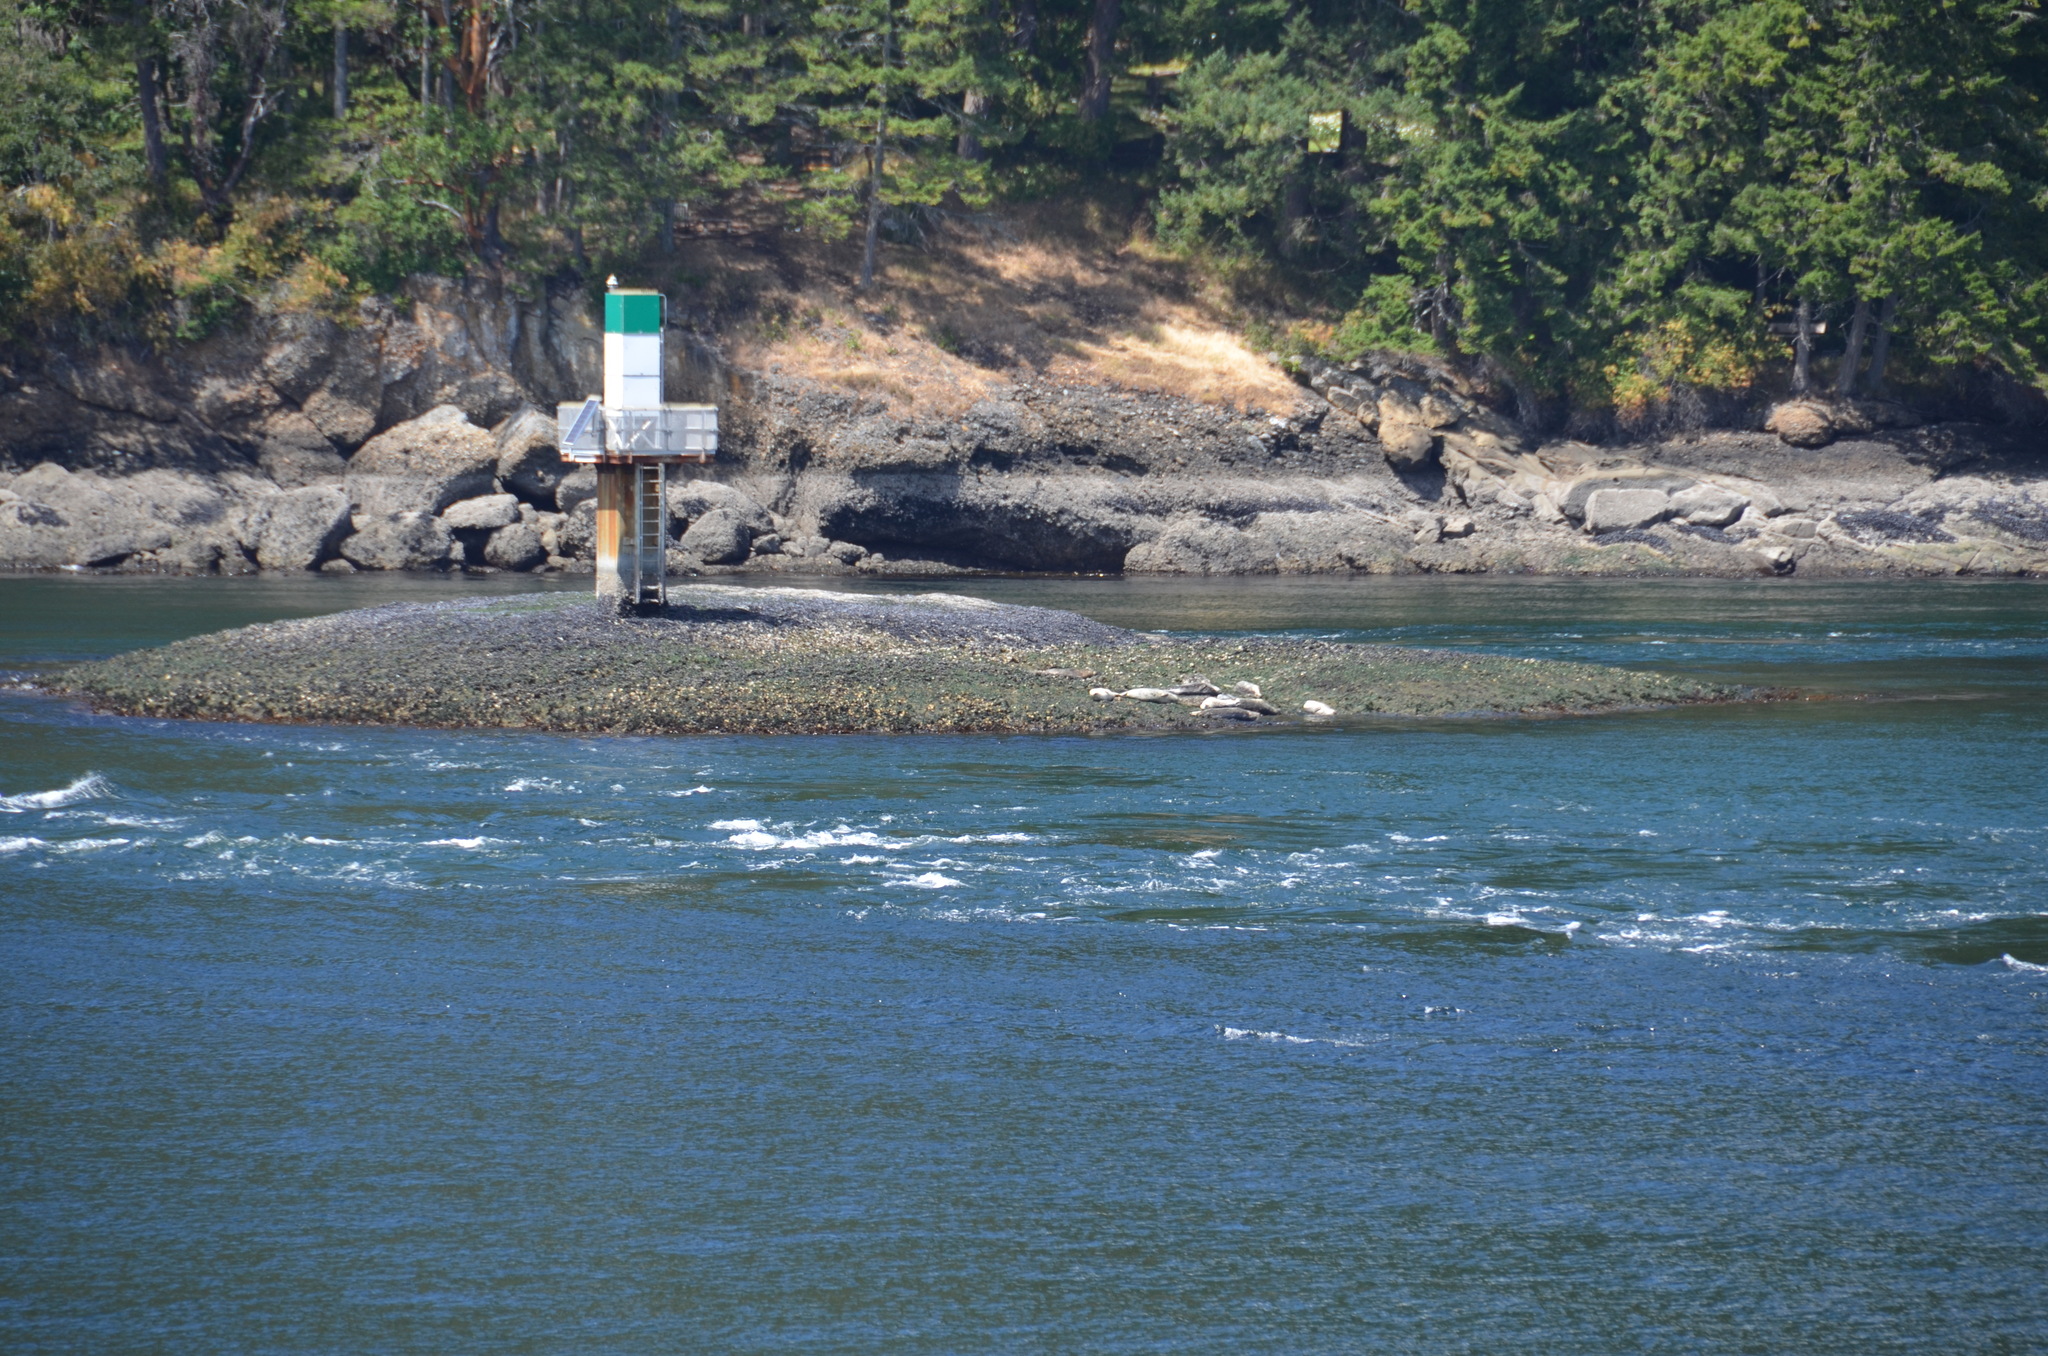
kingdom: Animalia
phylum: Chordata
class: Mammalia
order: Carnivora
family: Phocidae
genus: Phoca
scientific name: Phoca vitulina
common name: Harbor seal
